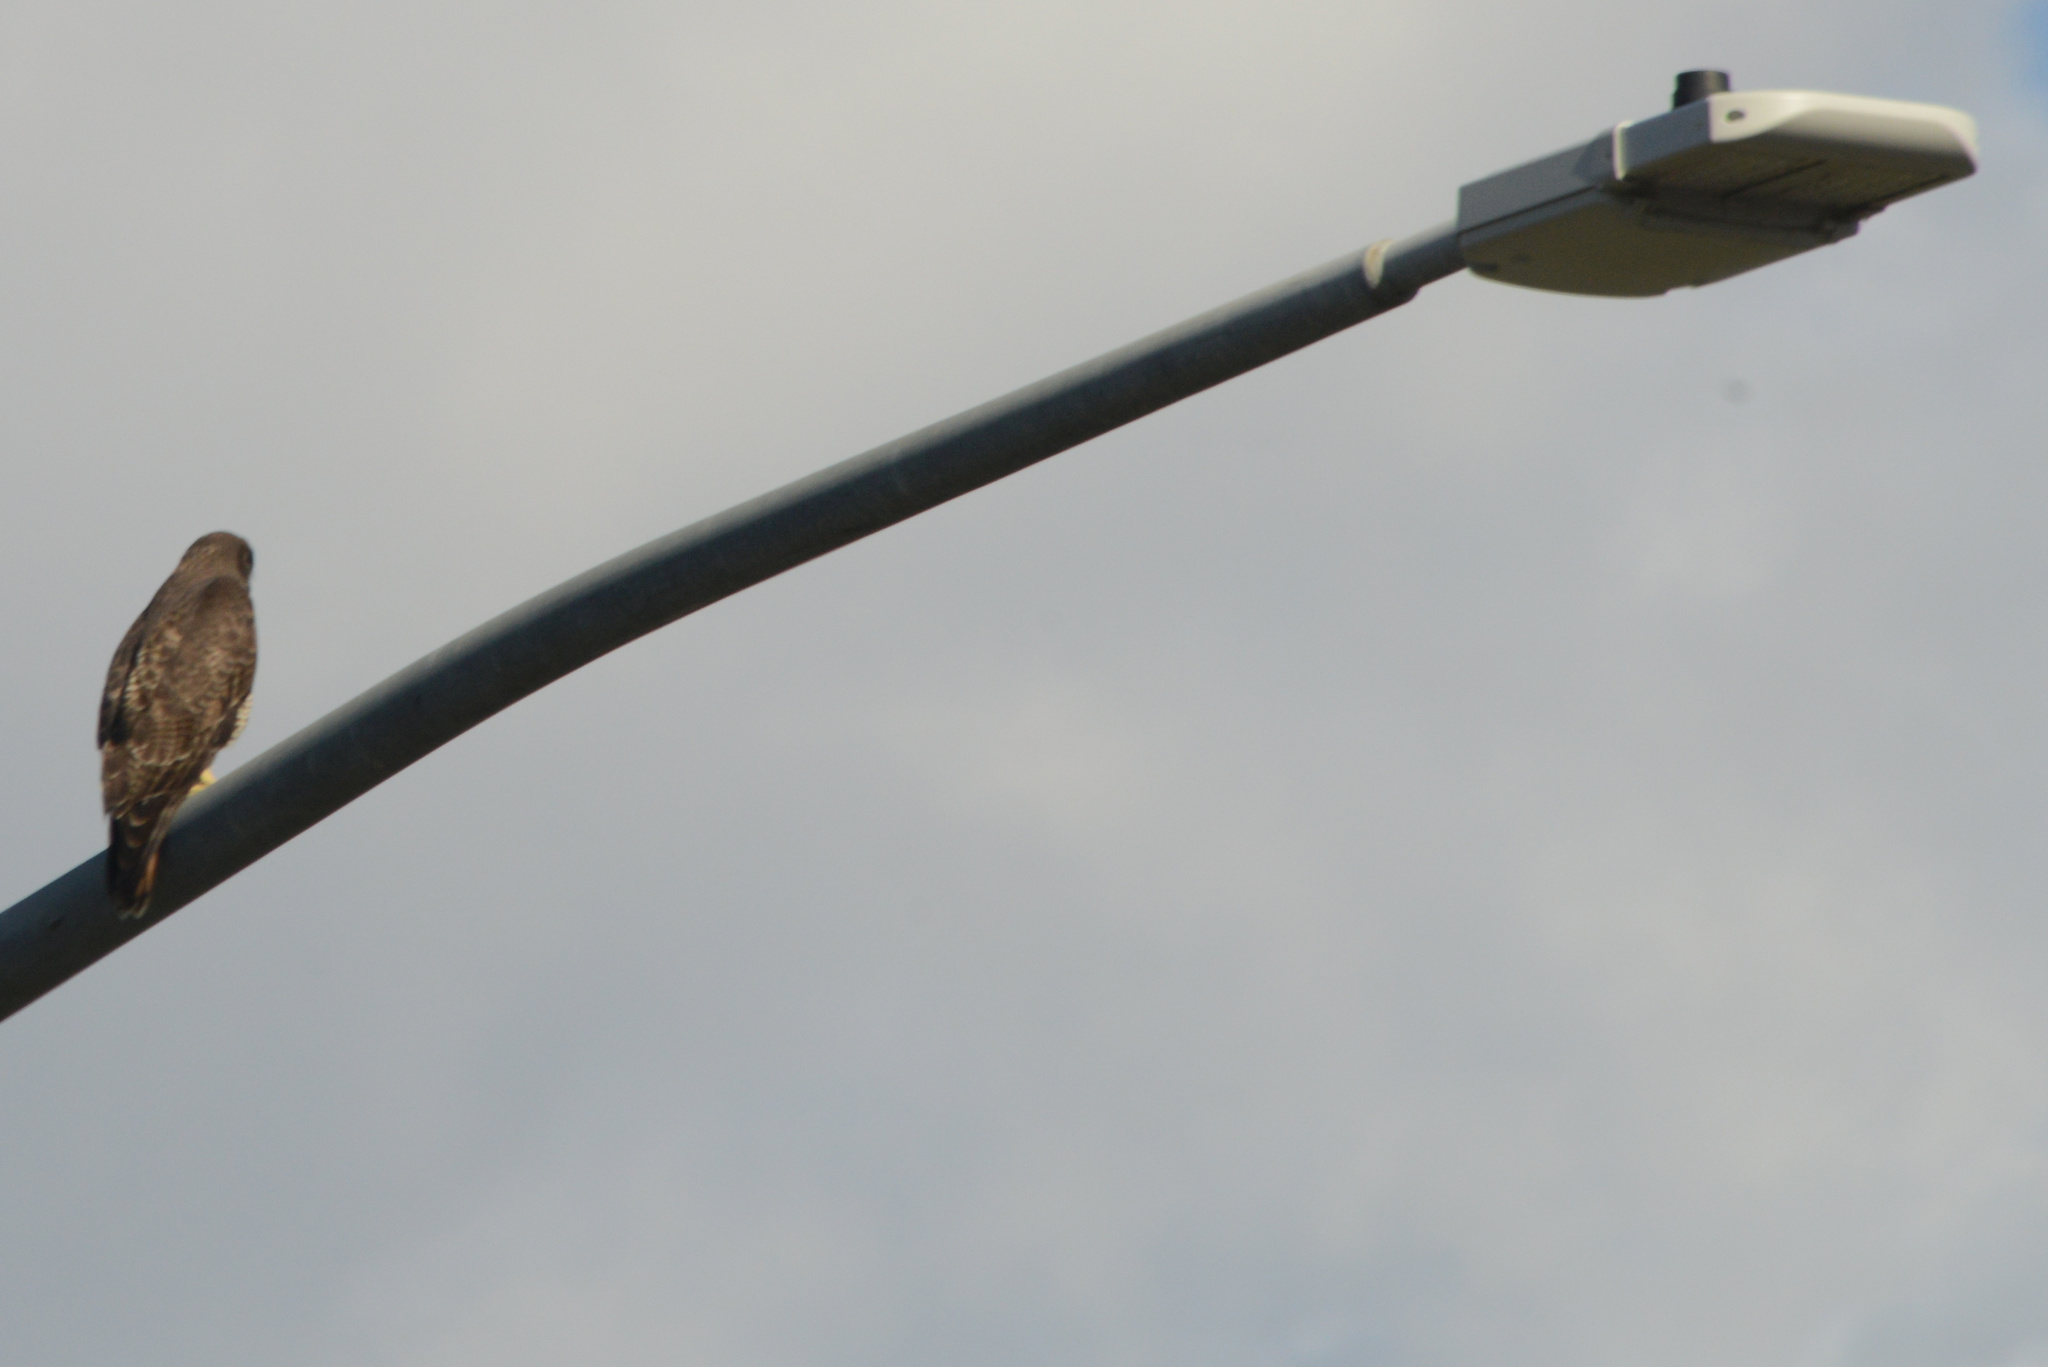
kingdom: Animalia
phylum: Chordata
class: Aves
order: Accipitriformes
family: Accipitridae
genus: Buteo
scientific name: Buteo jamaicensis
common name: Red-tailed hawk
